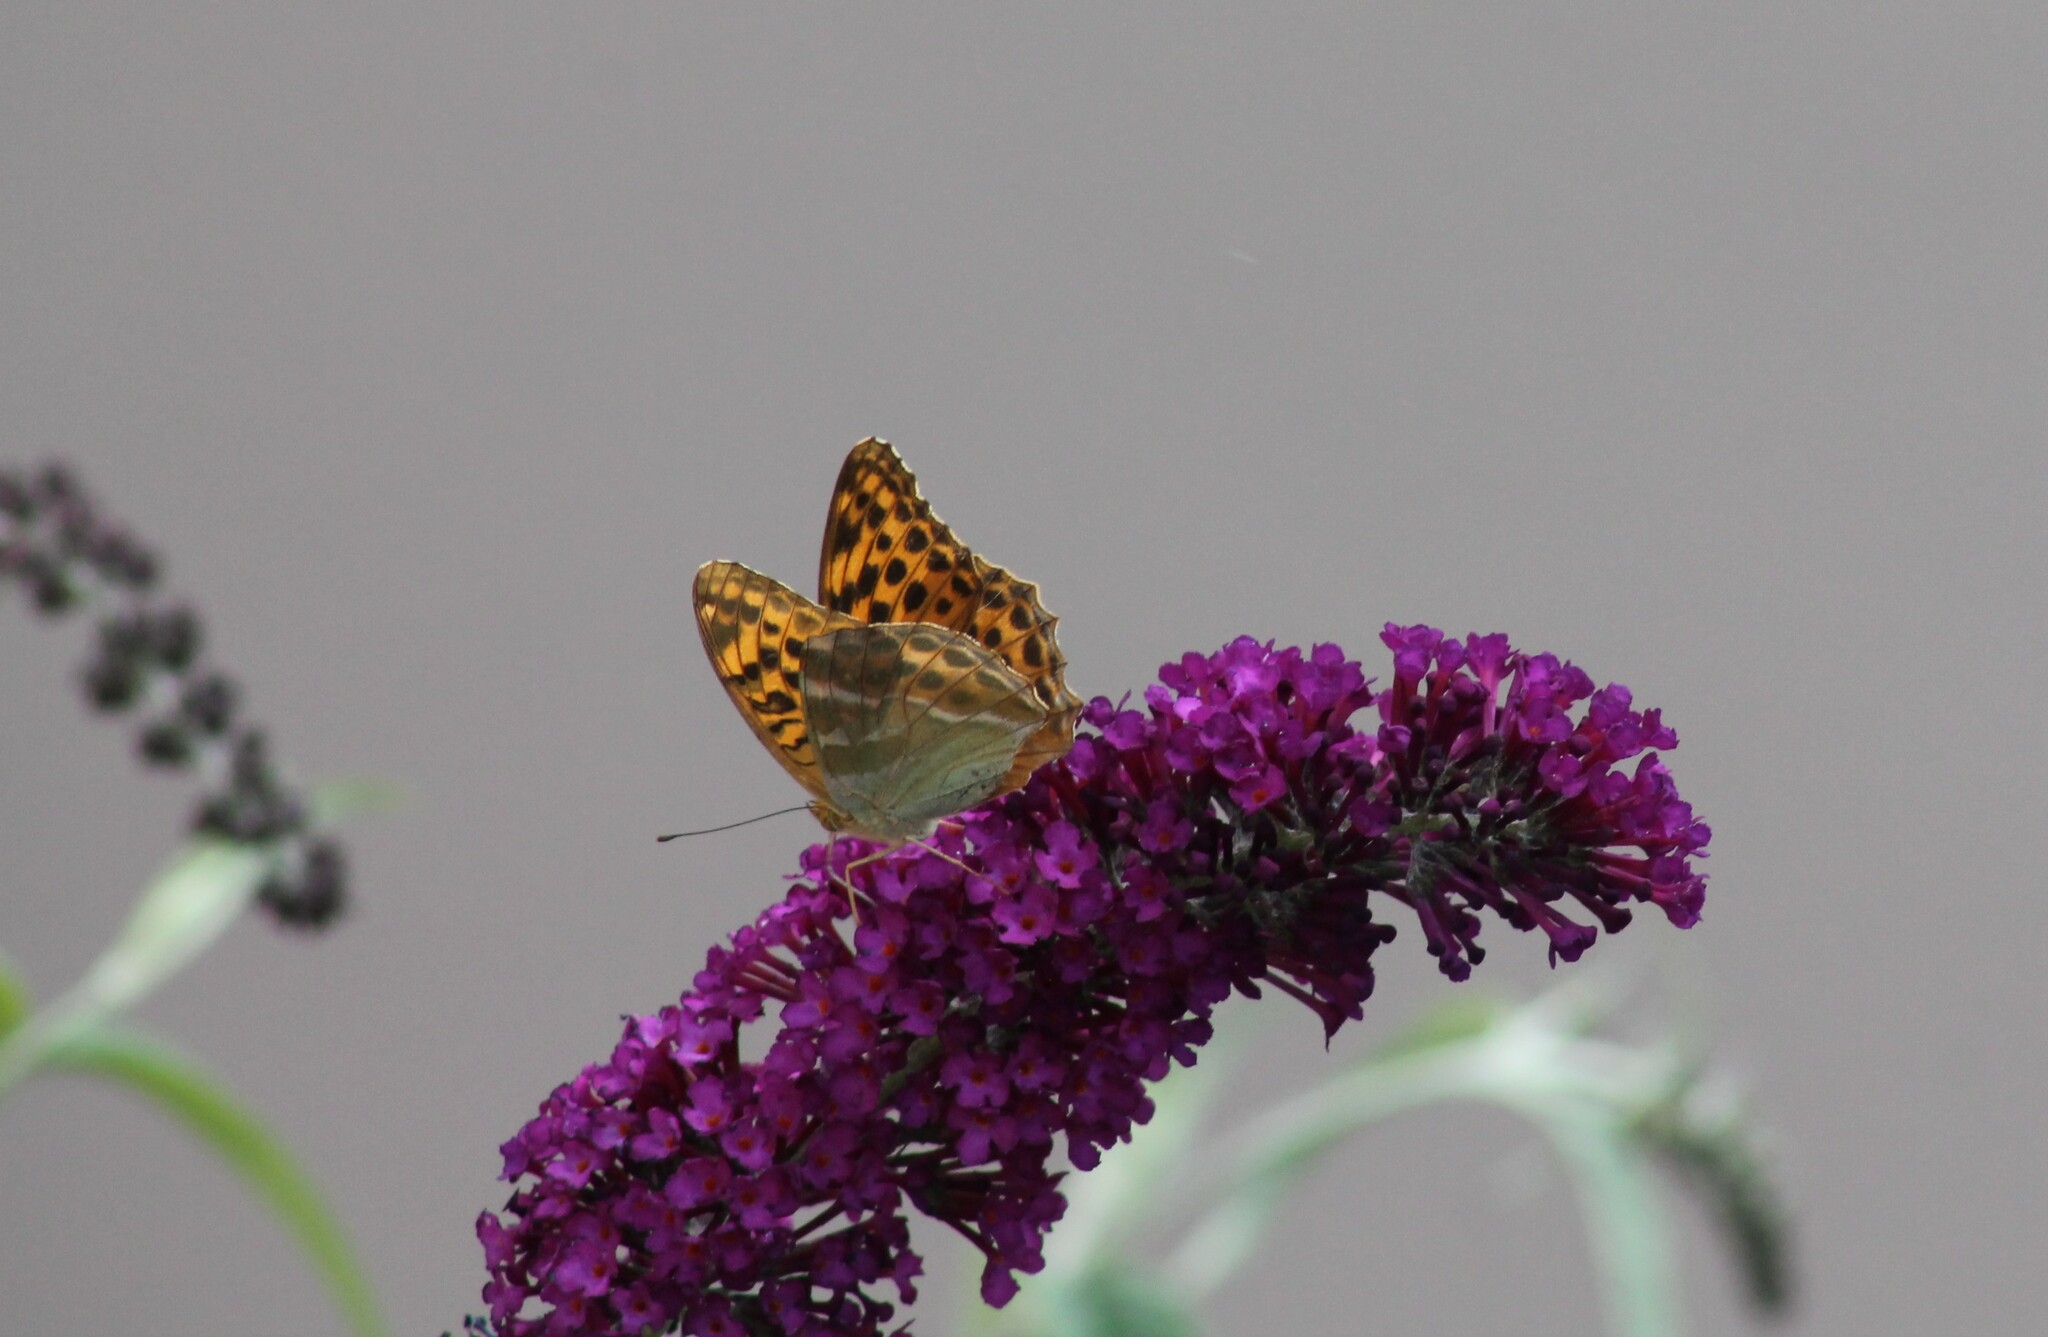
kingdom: Animalia
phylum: Arthropoda
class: Insecta
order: Lepidoptera
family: Nymphalidae
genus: Argynnis
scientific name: Argynnis paphia
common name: Silver-washed fritillary
